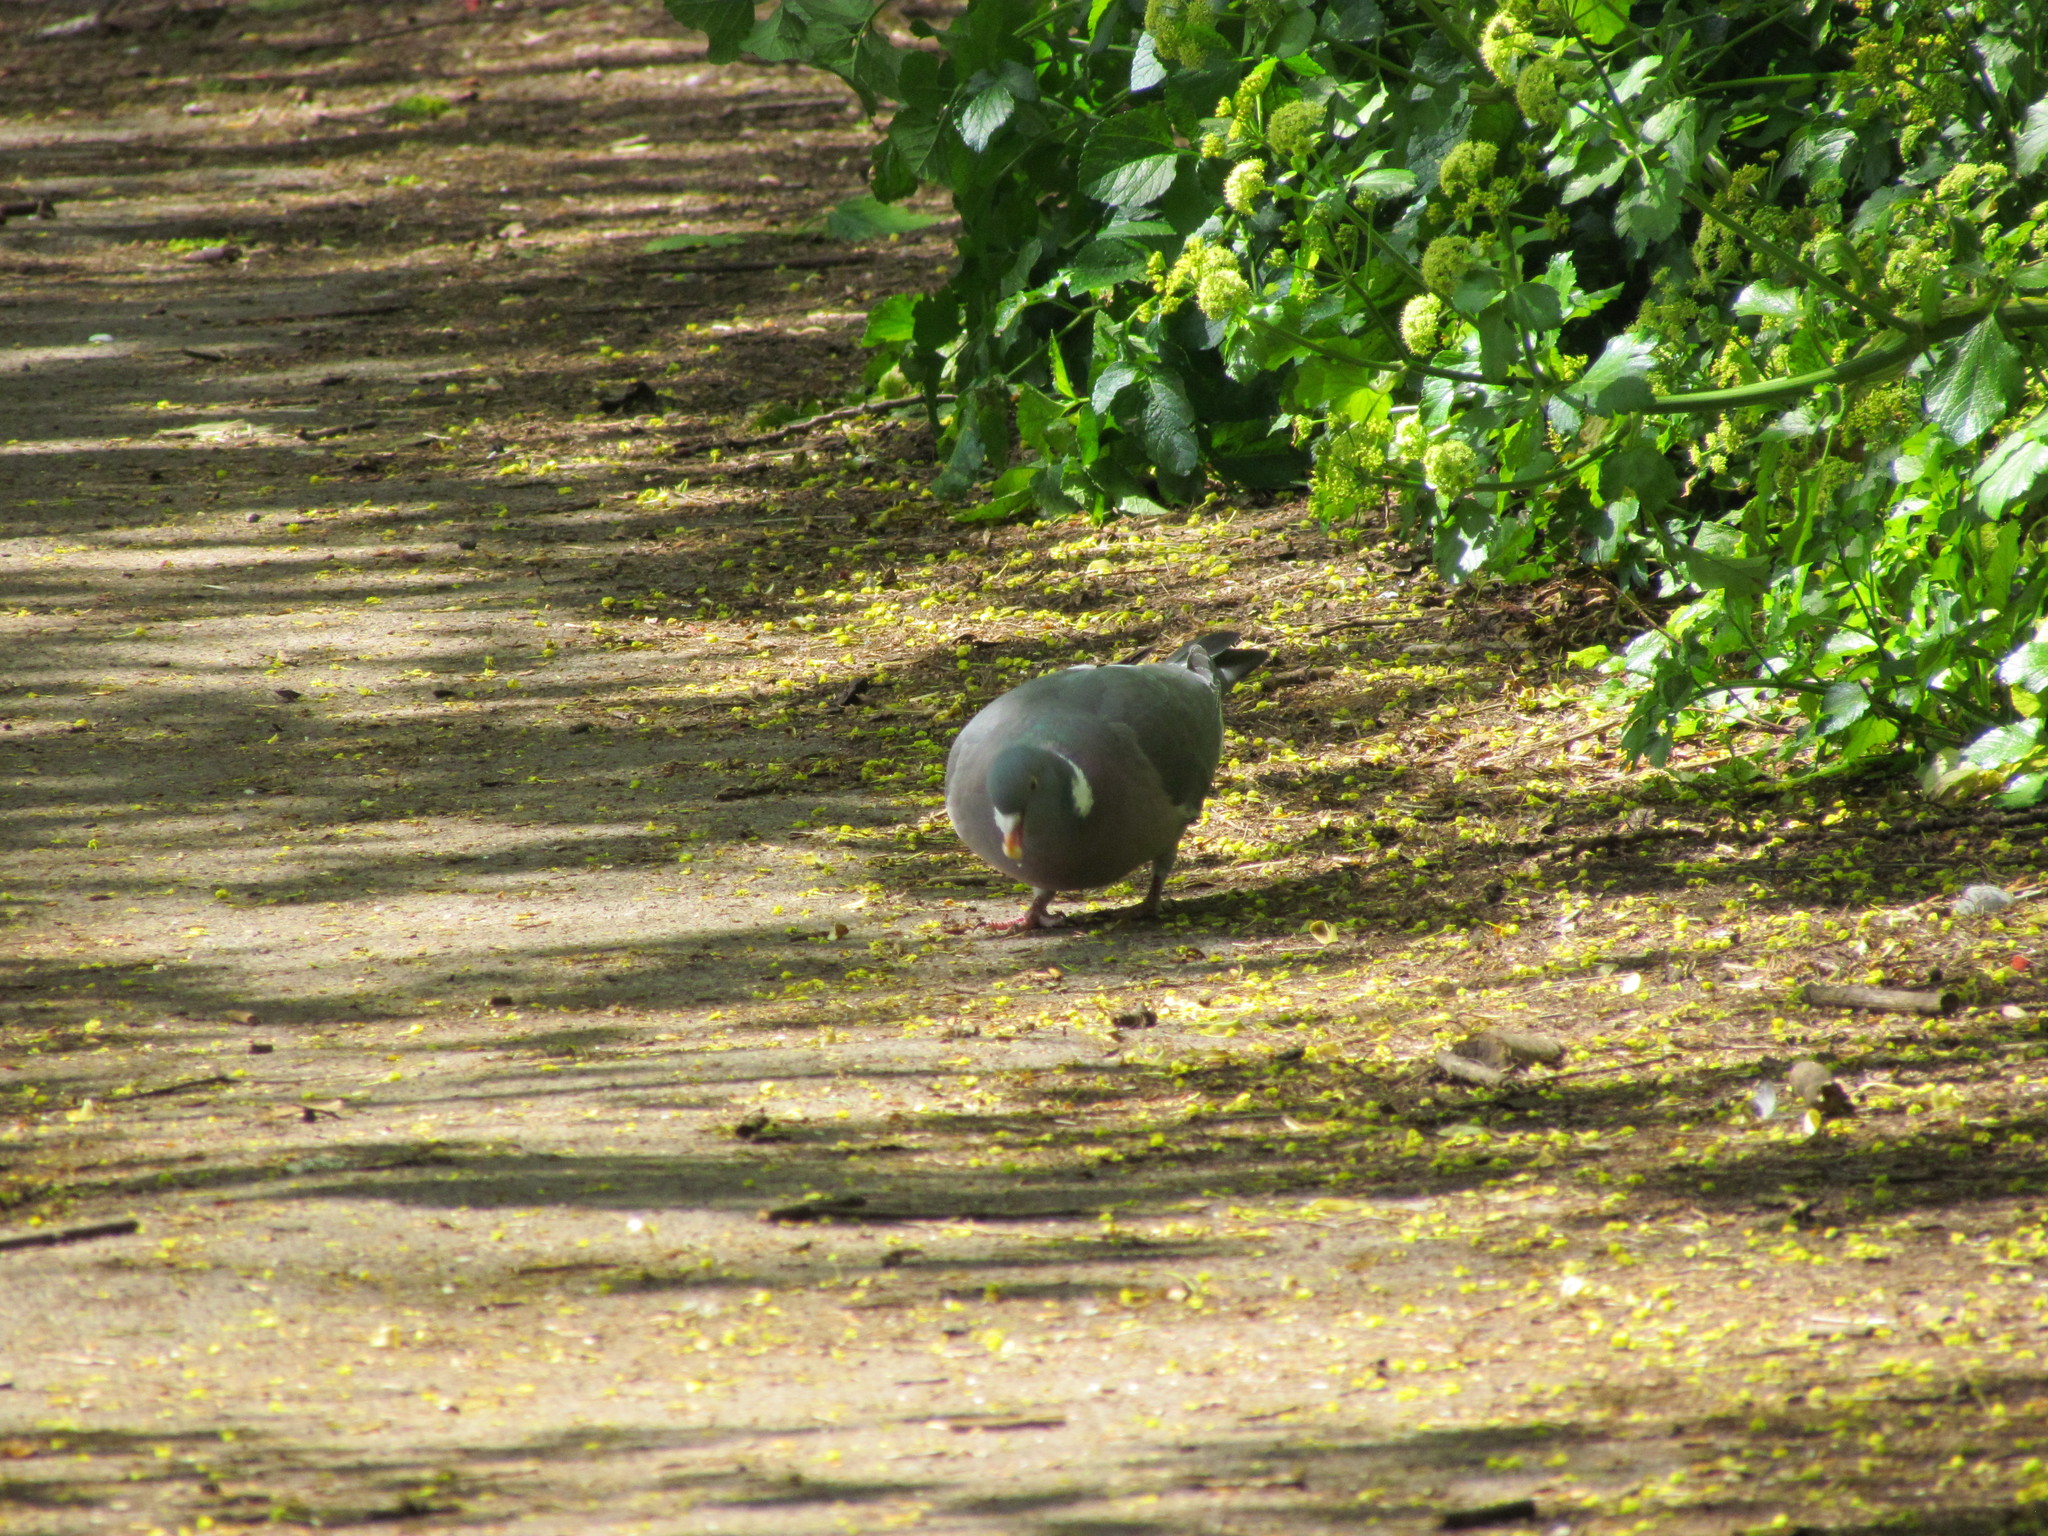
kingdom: Animalia
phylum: Chordata
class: Aves
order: Columbiformes
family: Columbidae
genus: Columba
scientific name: Columba palumbus
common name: Common wood pigeon
